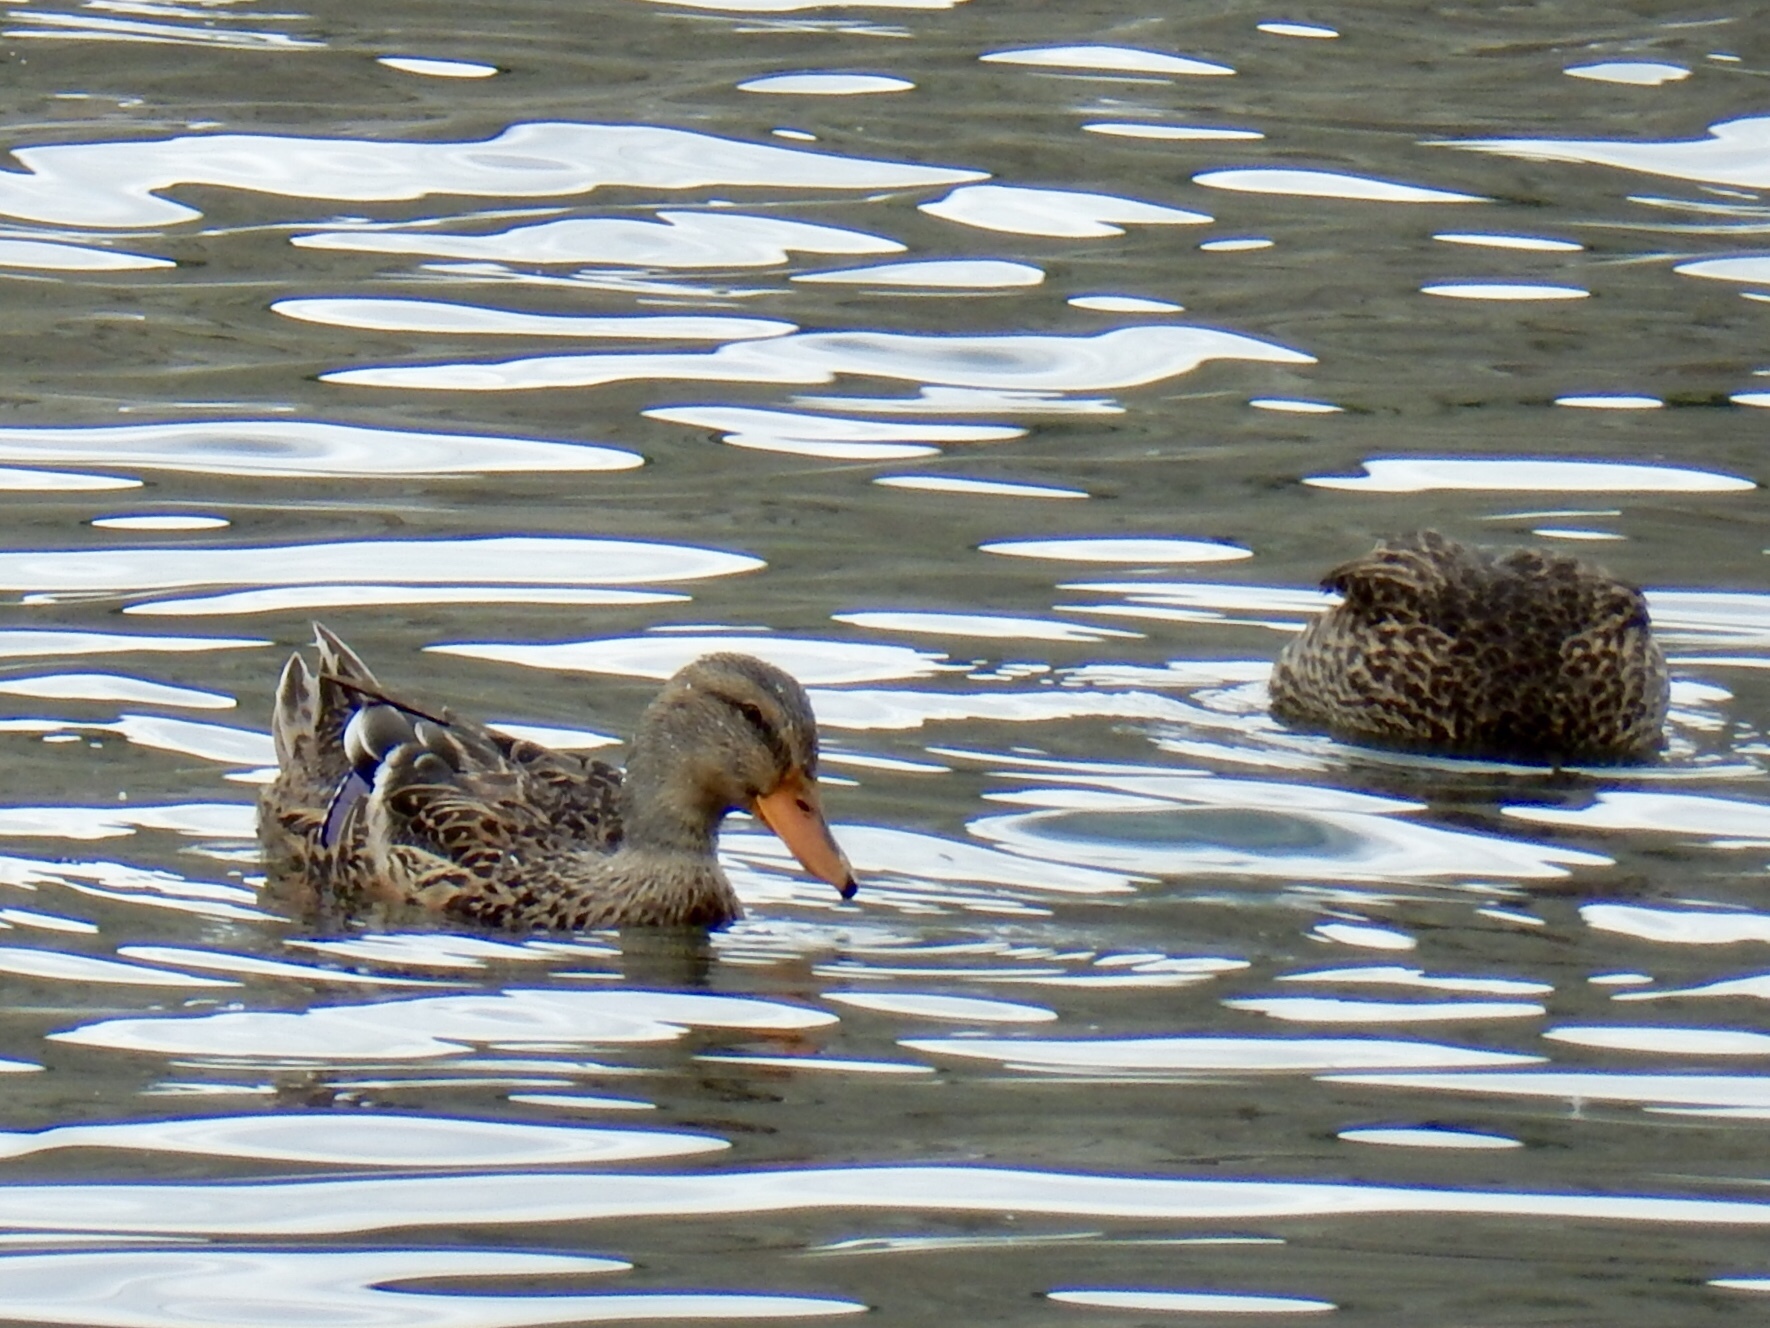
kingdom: Animalia
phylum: Chordata
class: Aves
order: Anseriformes
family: Anatidae
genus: Anas
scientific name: Anas platyrhynchos
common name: Mallard
